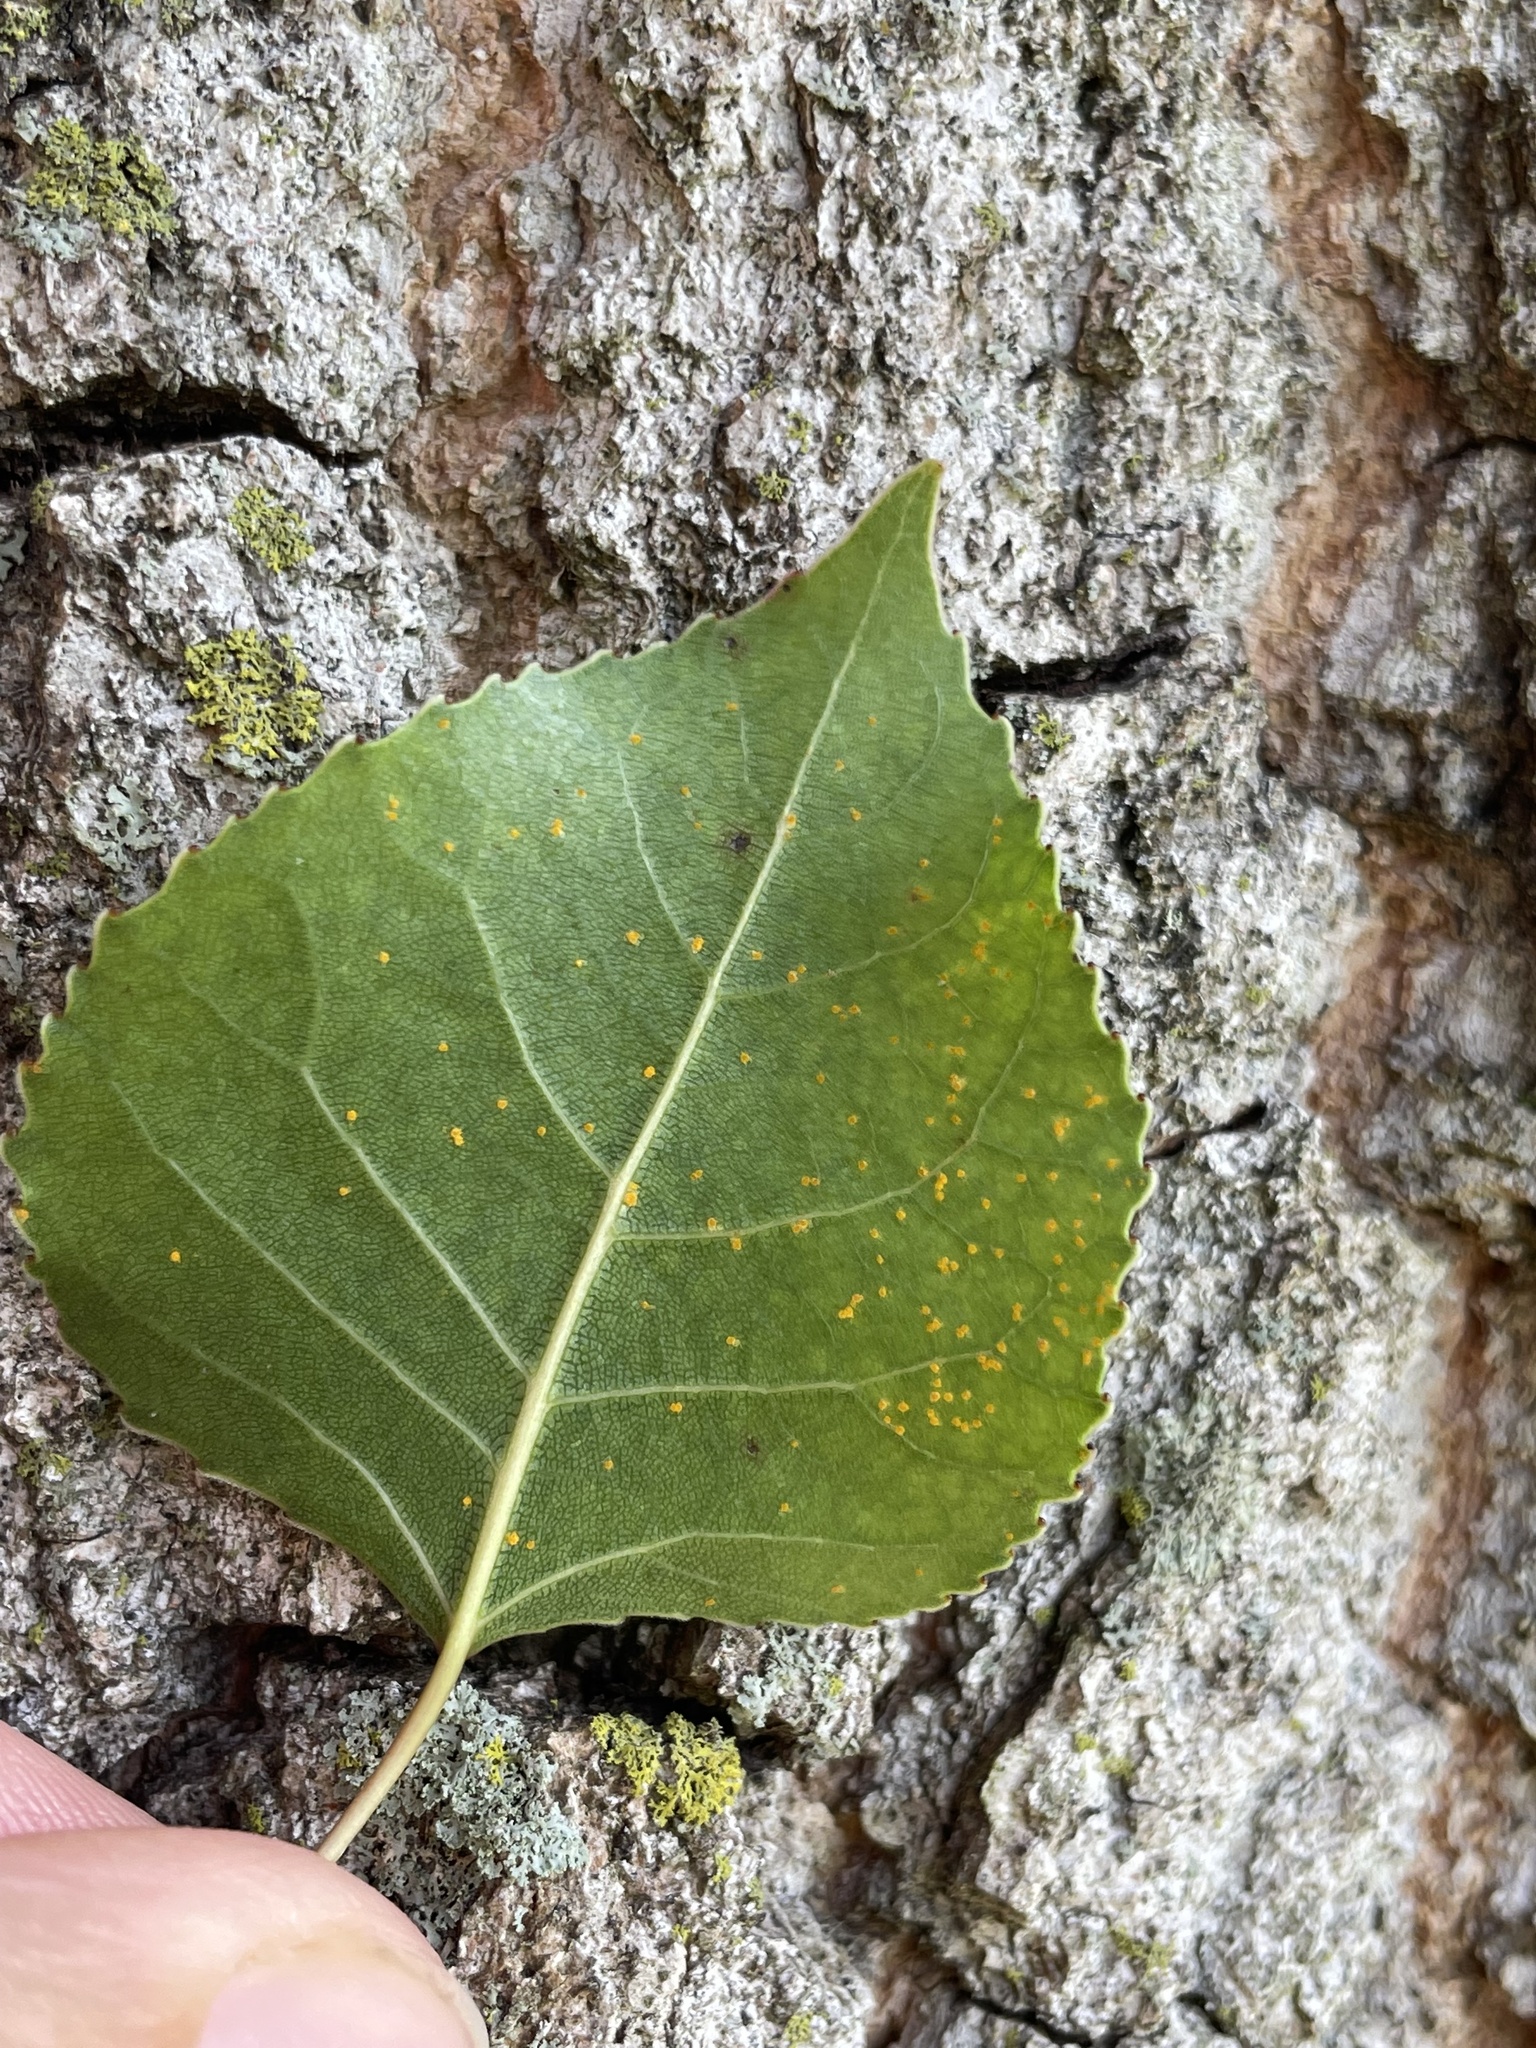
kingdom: Fungi
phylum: Basidiomycota
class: Pucciniomycetes
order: Pucciniales
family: Melampsoraceae
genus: Melampsora
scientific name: Melampsora medusae
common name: Poplar rust
